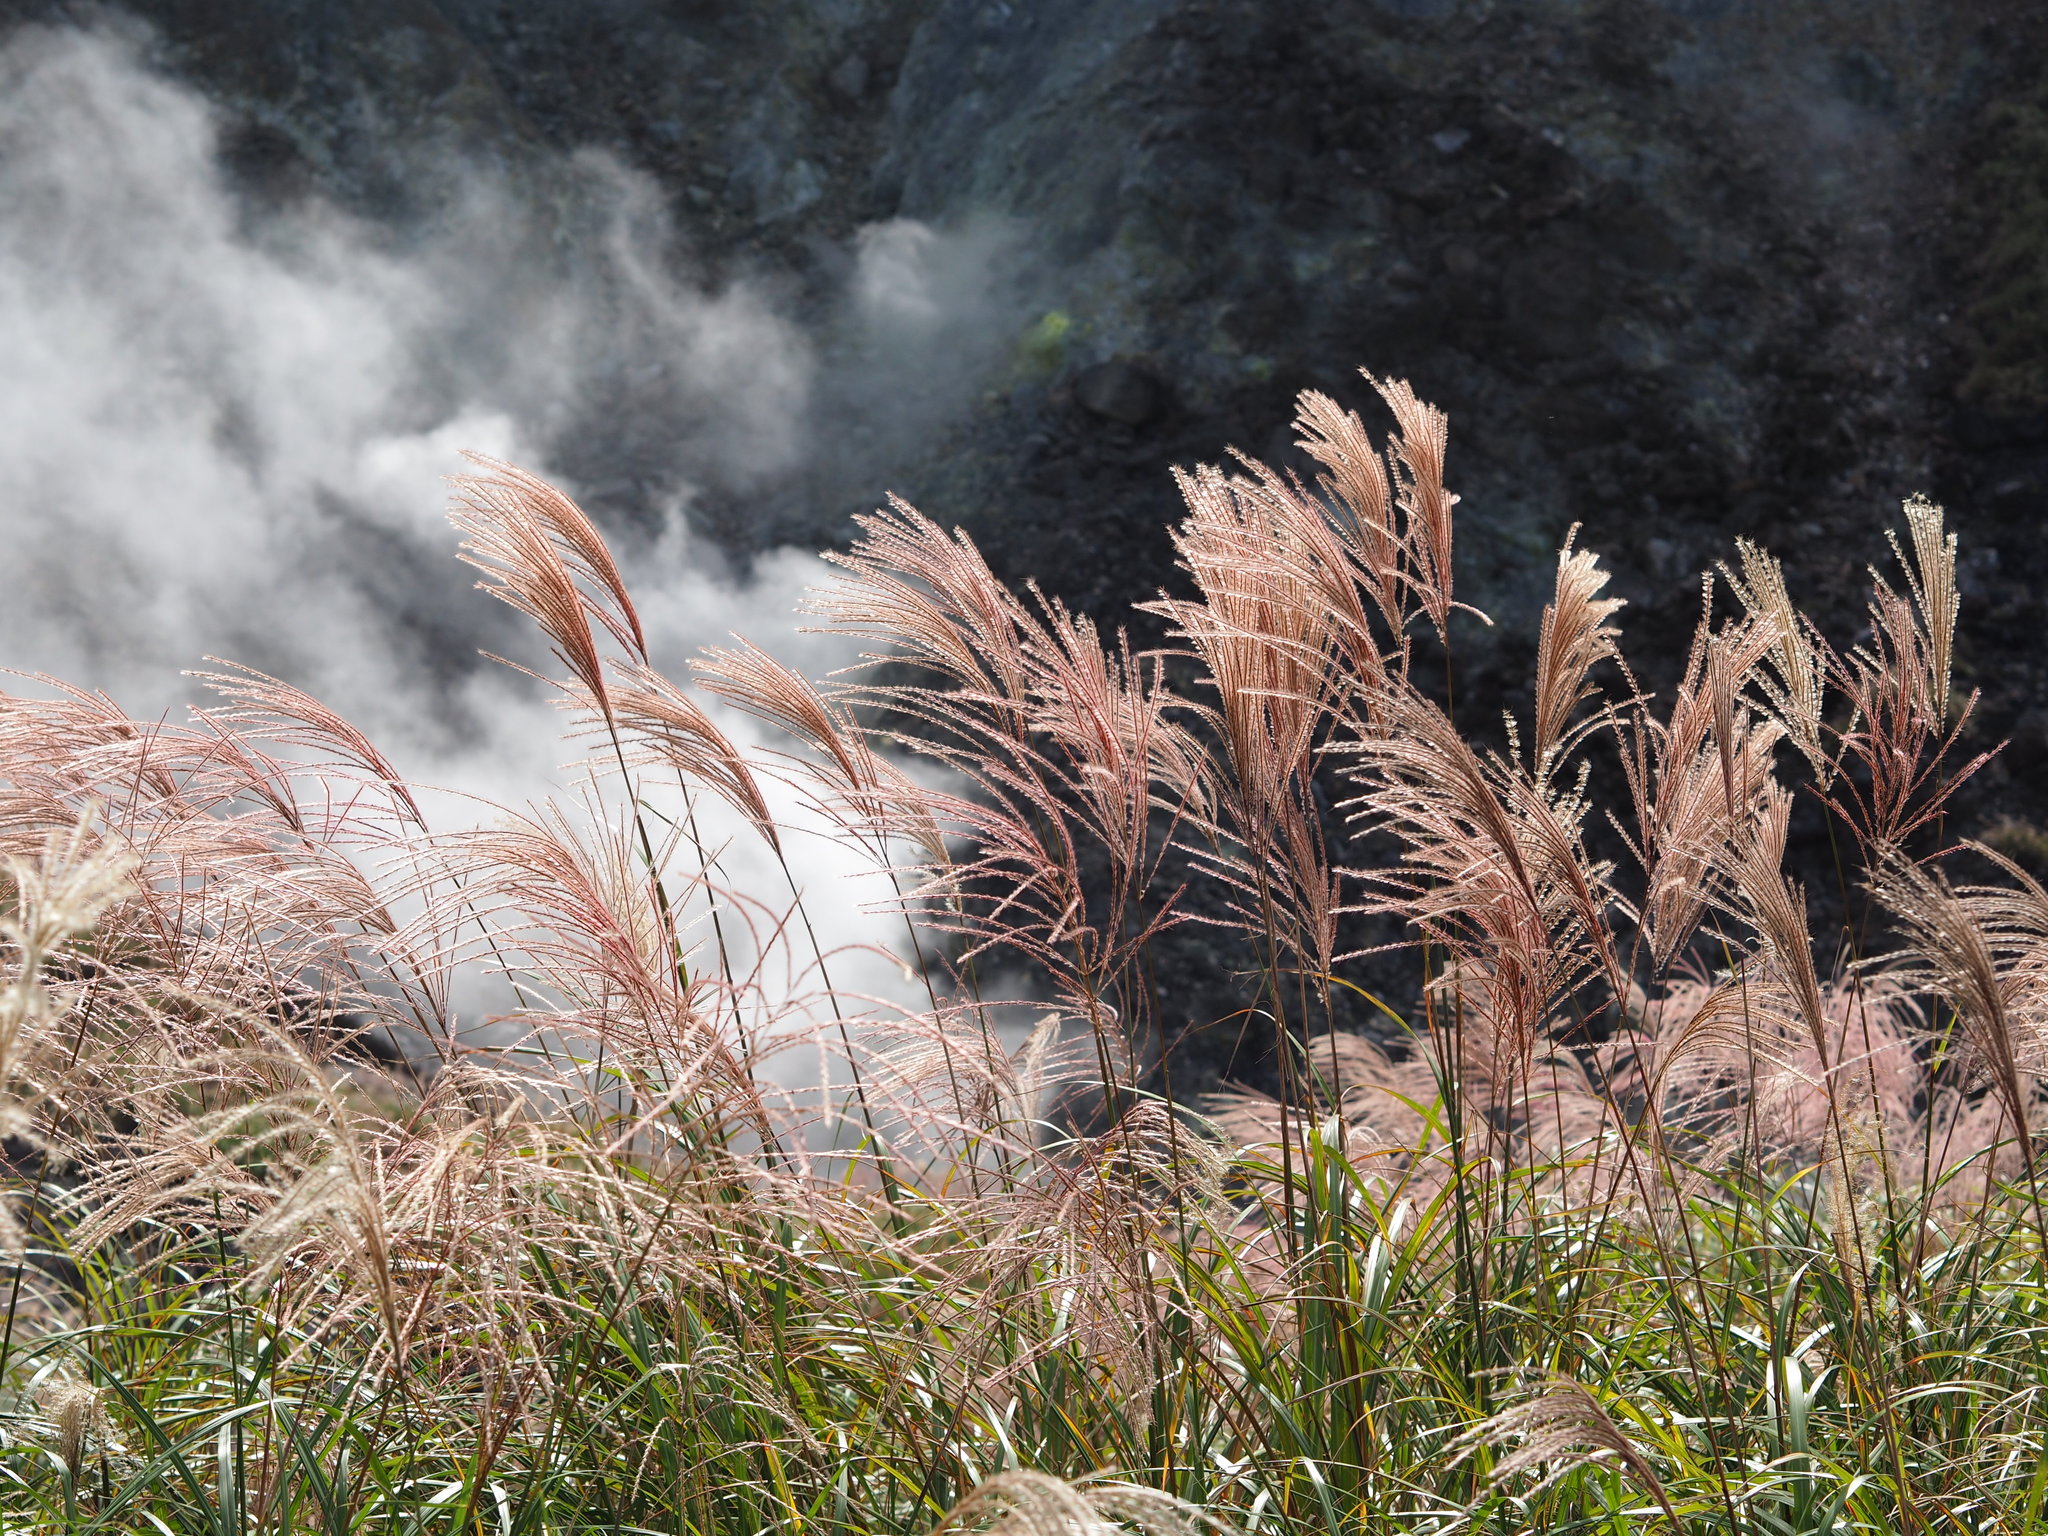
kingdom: Plantae
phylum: Tracheophyta
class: Liliopsida
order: Poales
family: Poaceae
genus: Miscanthus
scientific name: Miscanthus sinensis
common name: Chinese silvergrass
